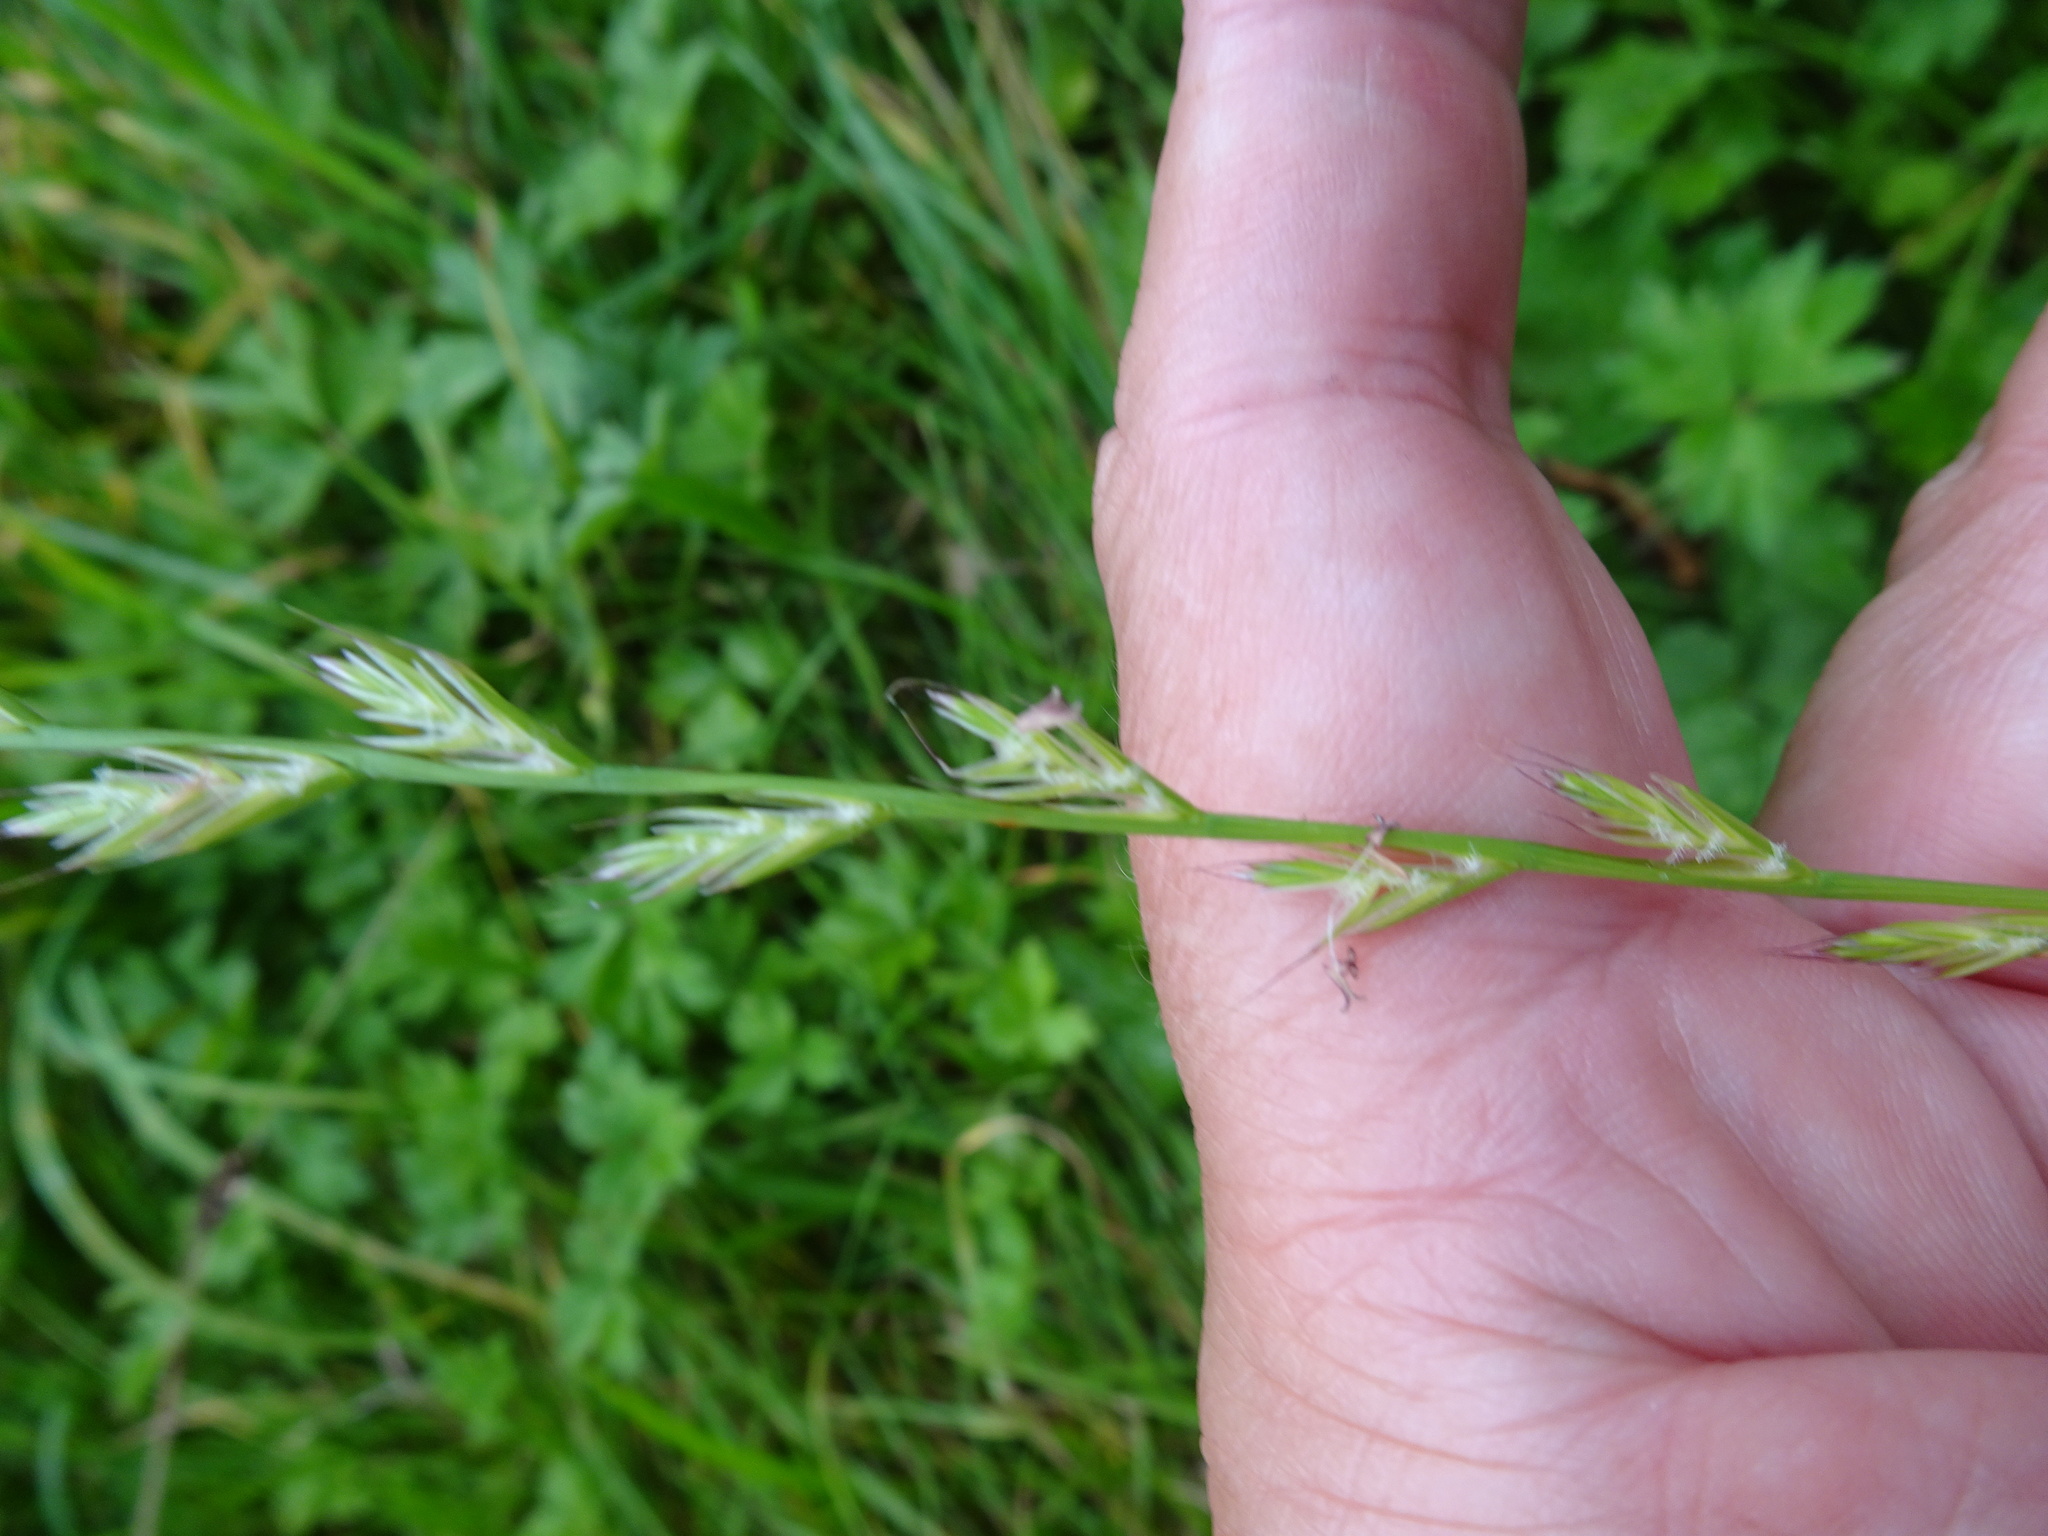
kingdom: Plantae
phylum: Tracheophyta
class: Liliopsida
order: Poales
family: Poaceae
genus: Lolium
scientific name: Lolium perenne
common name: Perennial ryegrass
